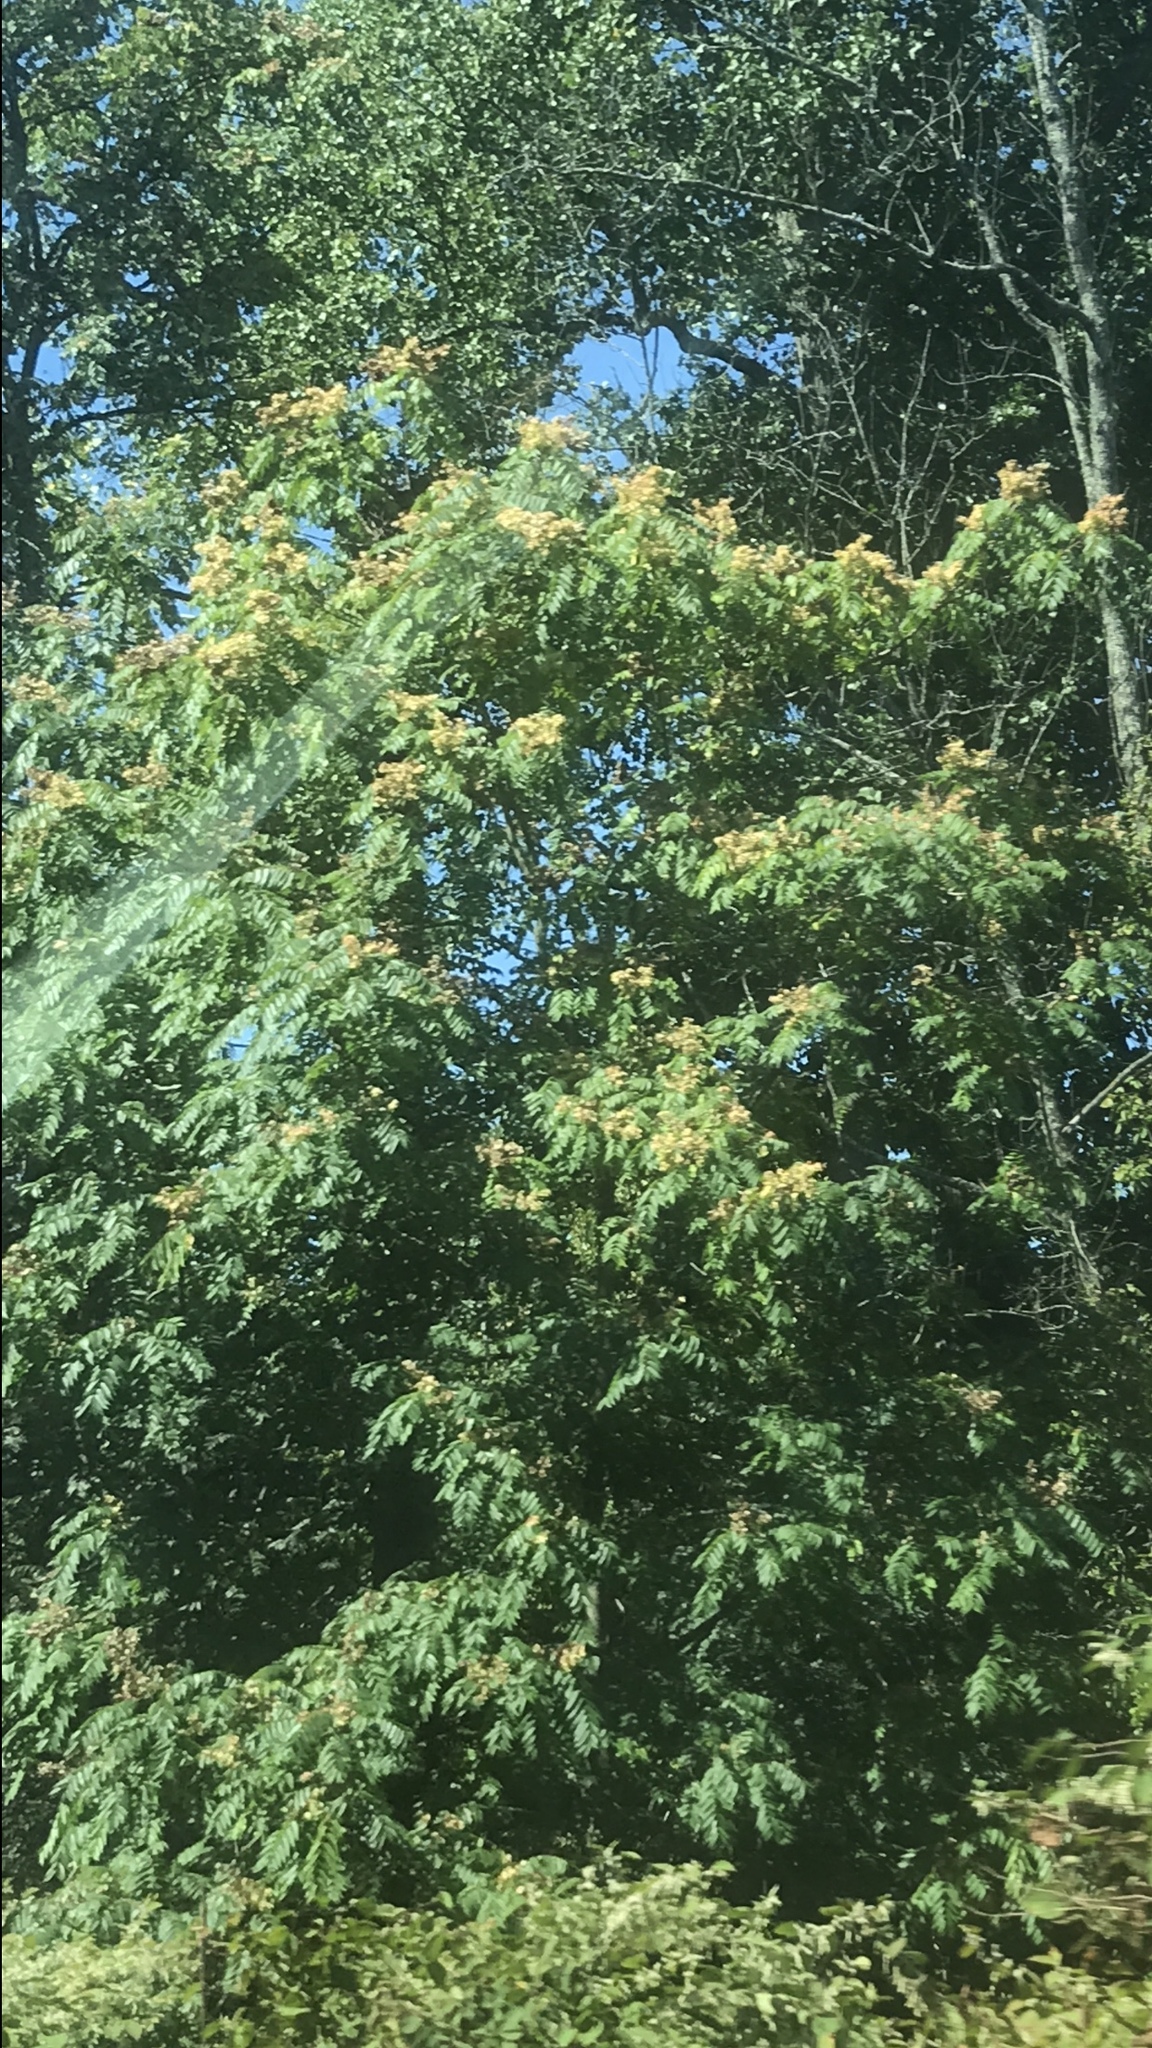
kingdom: Plantae
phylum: Tracheophyta
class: Magnoliopsida
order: Sapindales
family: Simaroubaceae
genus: Ailanthus
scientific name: Ailanthus altissima
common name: Tree-of-heaven
